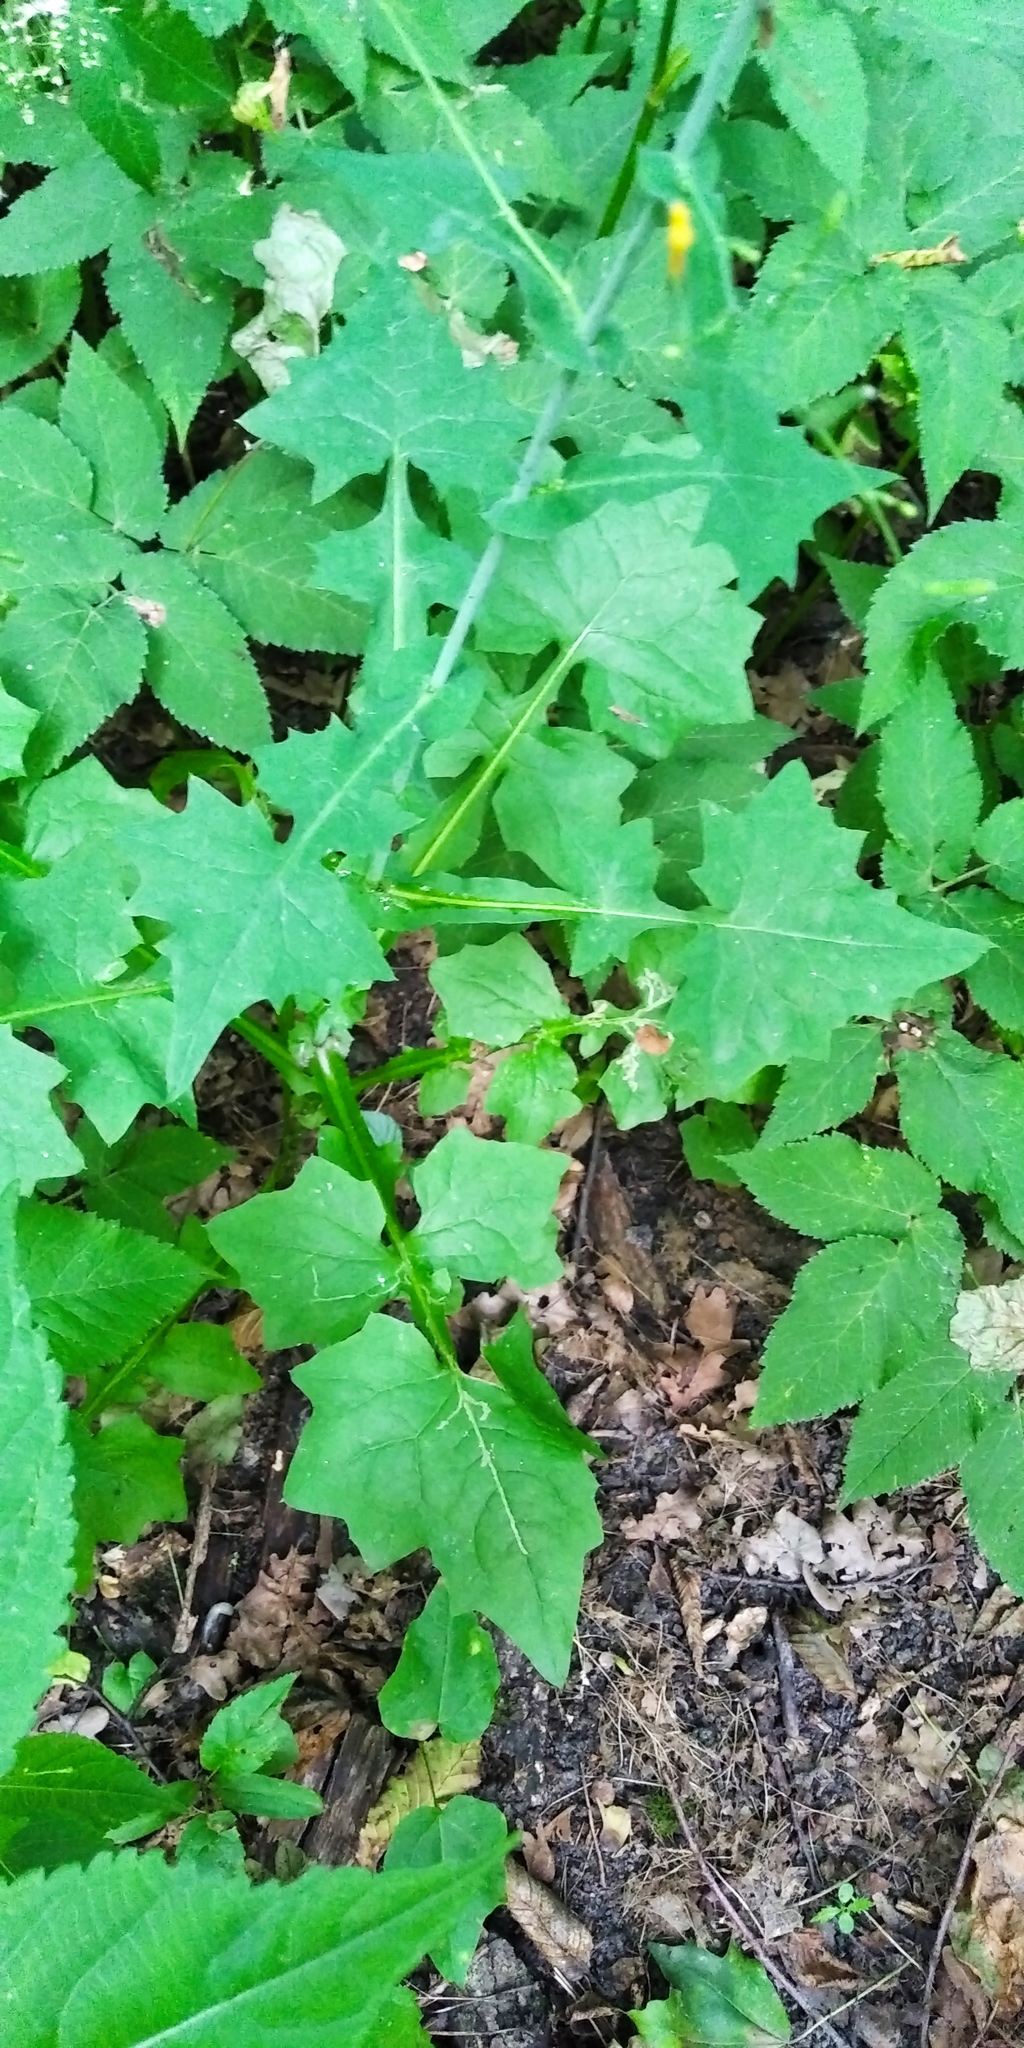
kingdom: Plantae
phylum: Tracheophyta
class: Magnoliopsida
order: Asterales
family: Asteraceae
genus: Mycelis
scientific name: Mycelis muralis
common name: Wall lettuce
